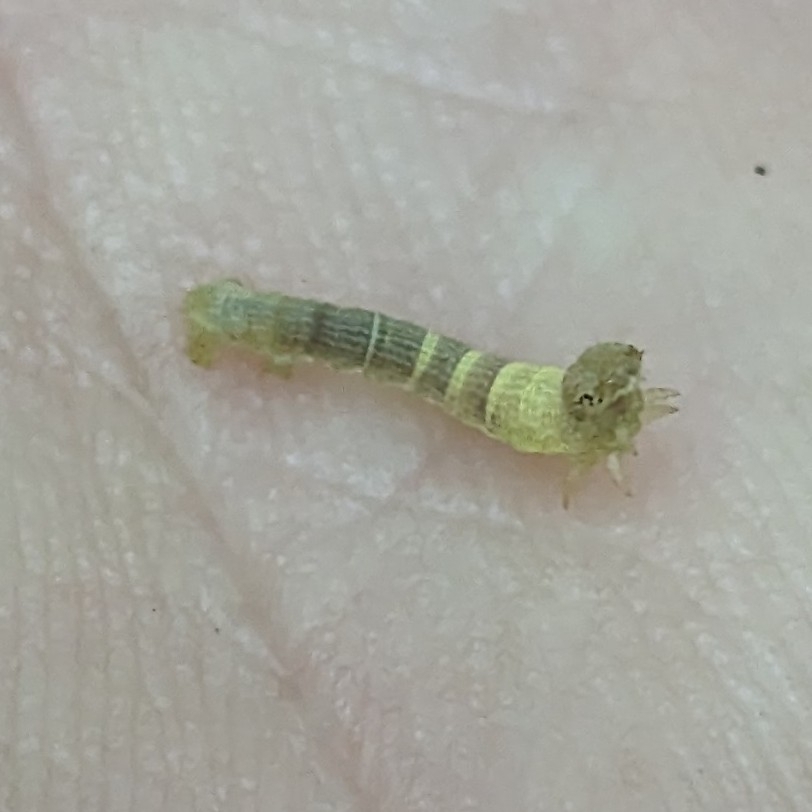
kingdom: Animalia
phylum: Arthropoda
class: Insecta
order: Lepidoptera
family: Geometridae
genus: Epimecis
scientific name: Epimecis hortaria
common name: Tulip-tree beauty
